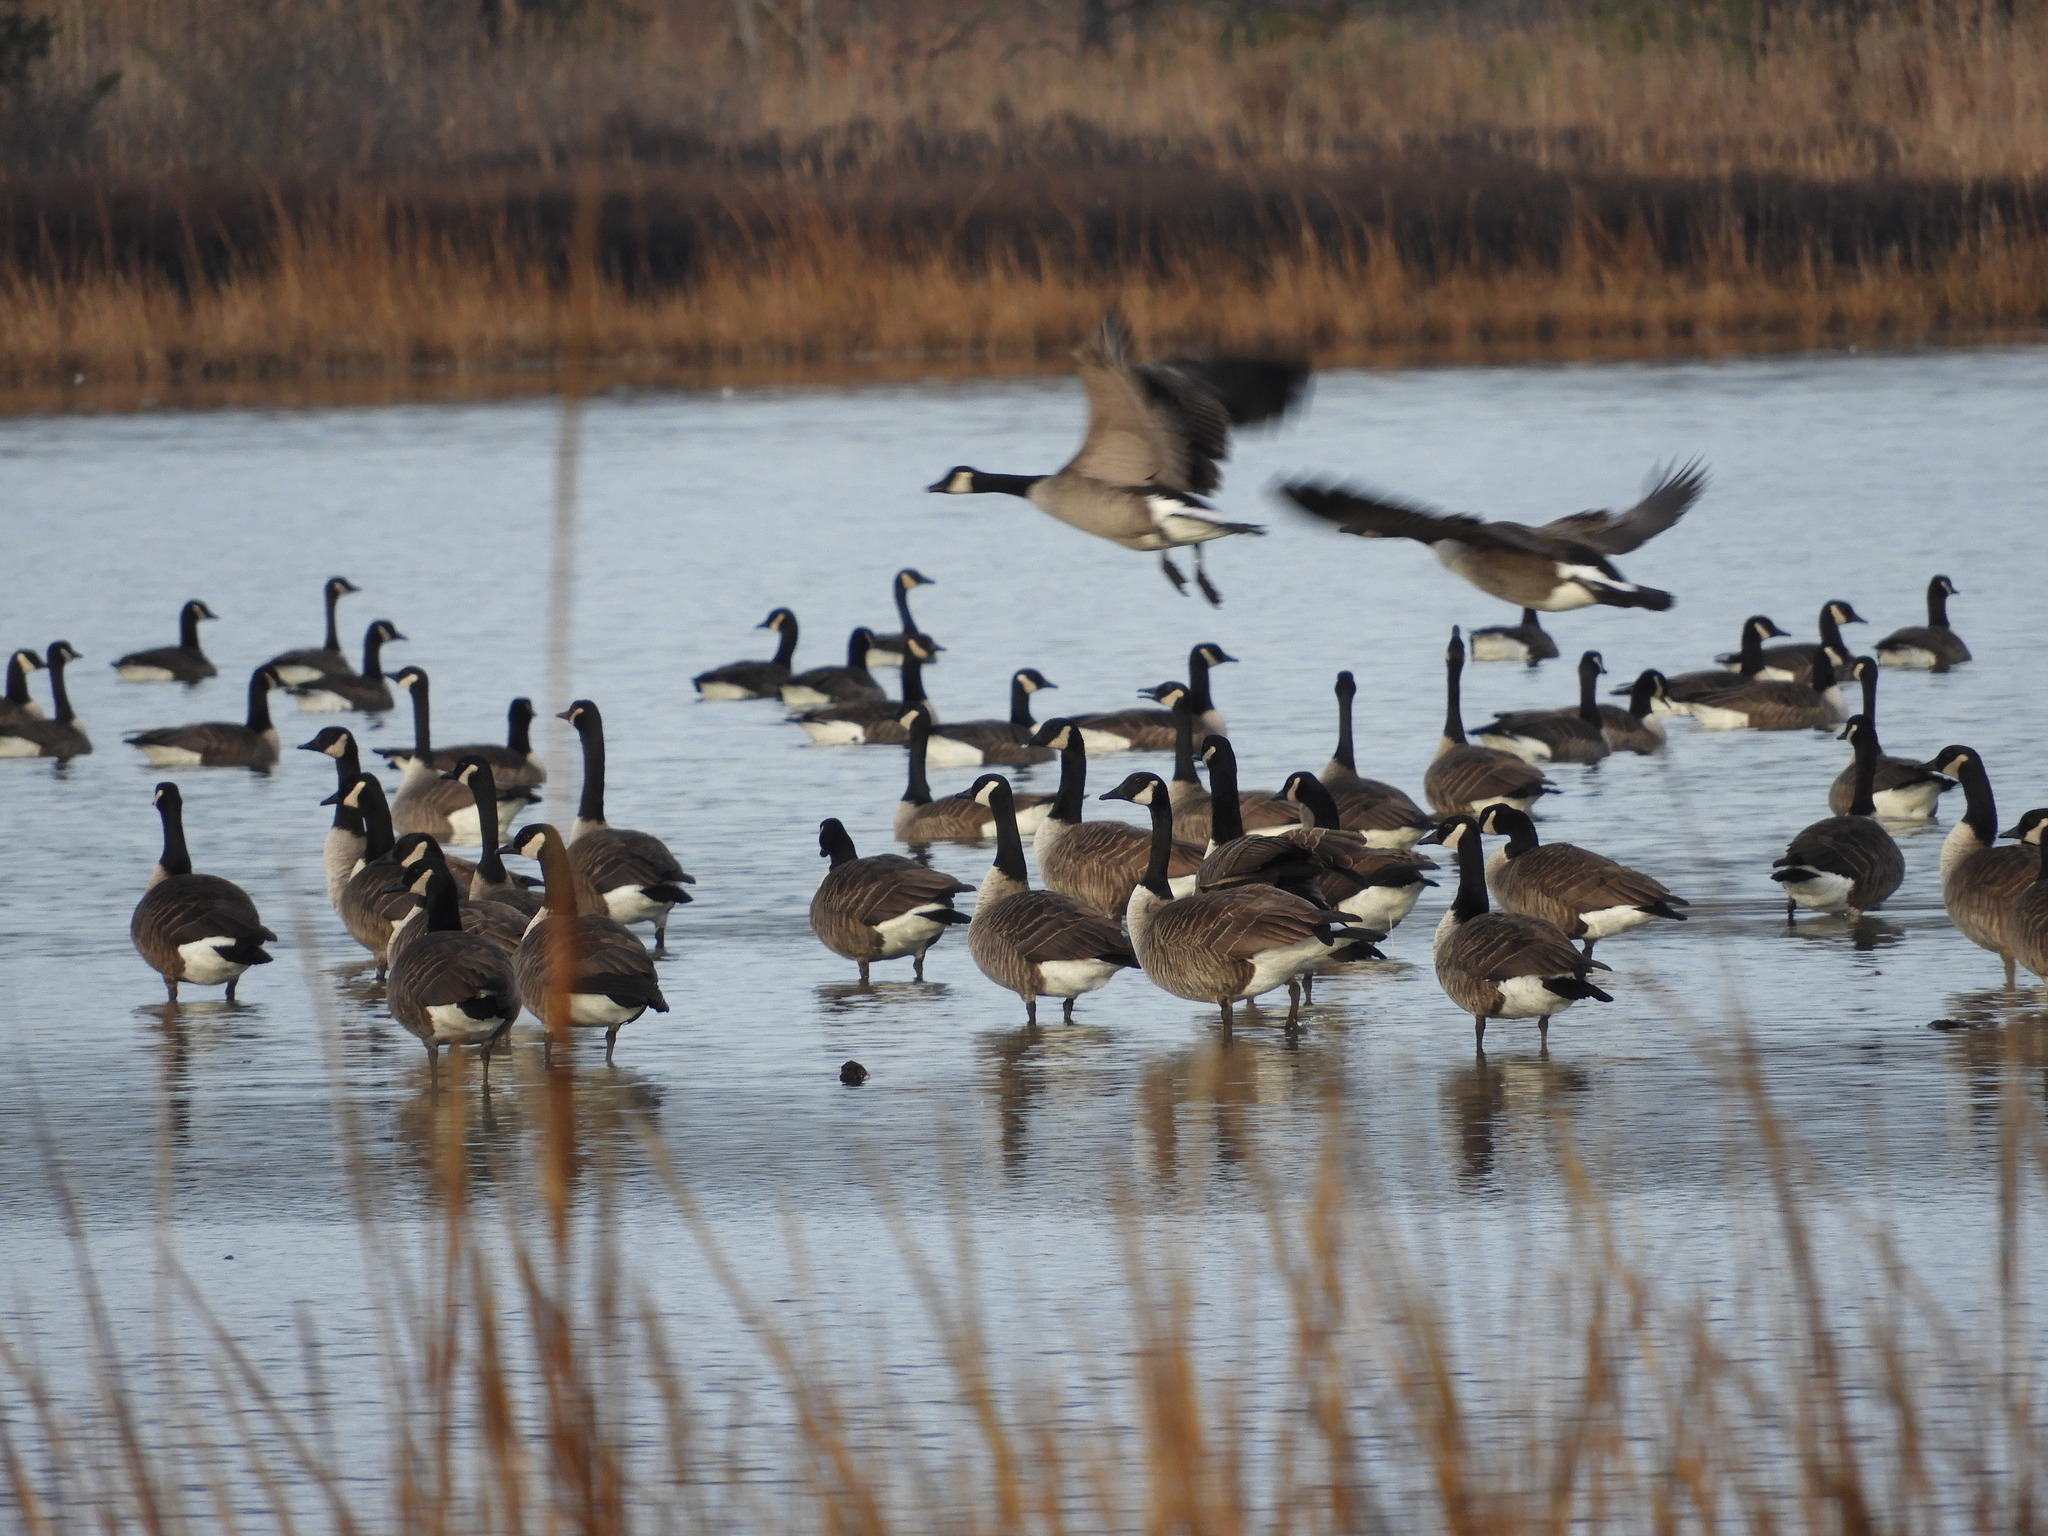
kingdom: Animalia
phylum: Chordata
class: Aves
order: Anseriformes
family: Anatidae
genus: Branta
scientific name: Branta canadensis
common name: Canada goose
